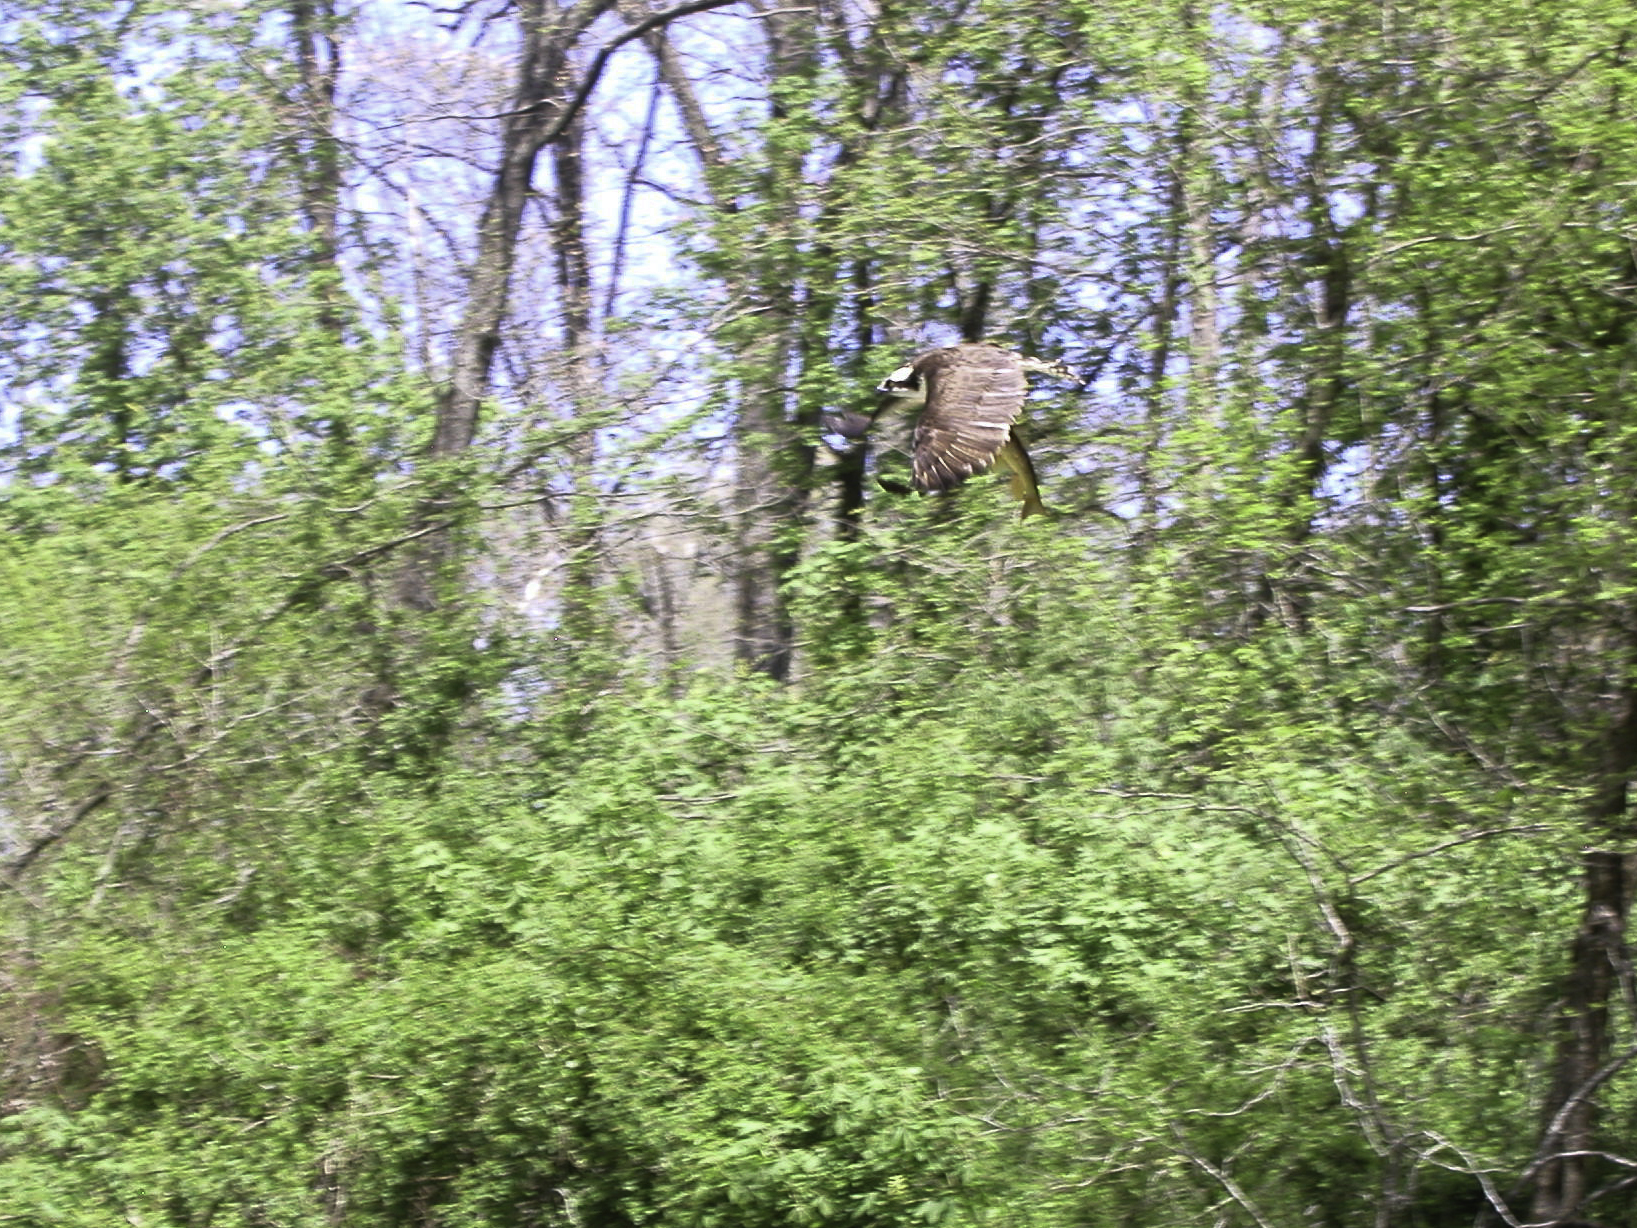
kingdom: Animalia
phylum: Chordata
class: Aves
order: Accipitriformes
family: Pandionidae
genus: Pandion
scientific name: Pandion haliaetus
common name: Osprey
